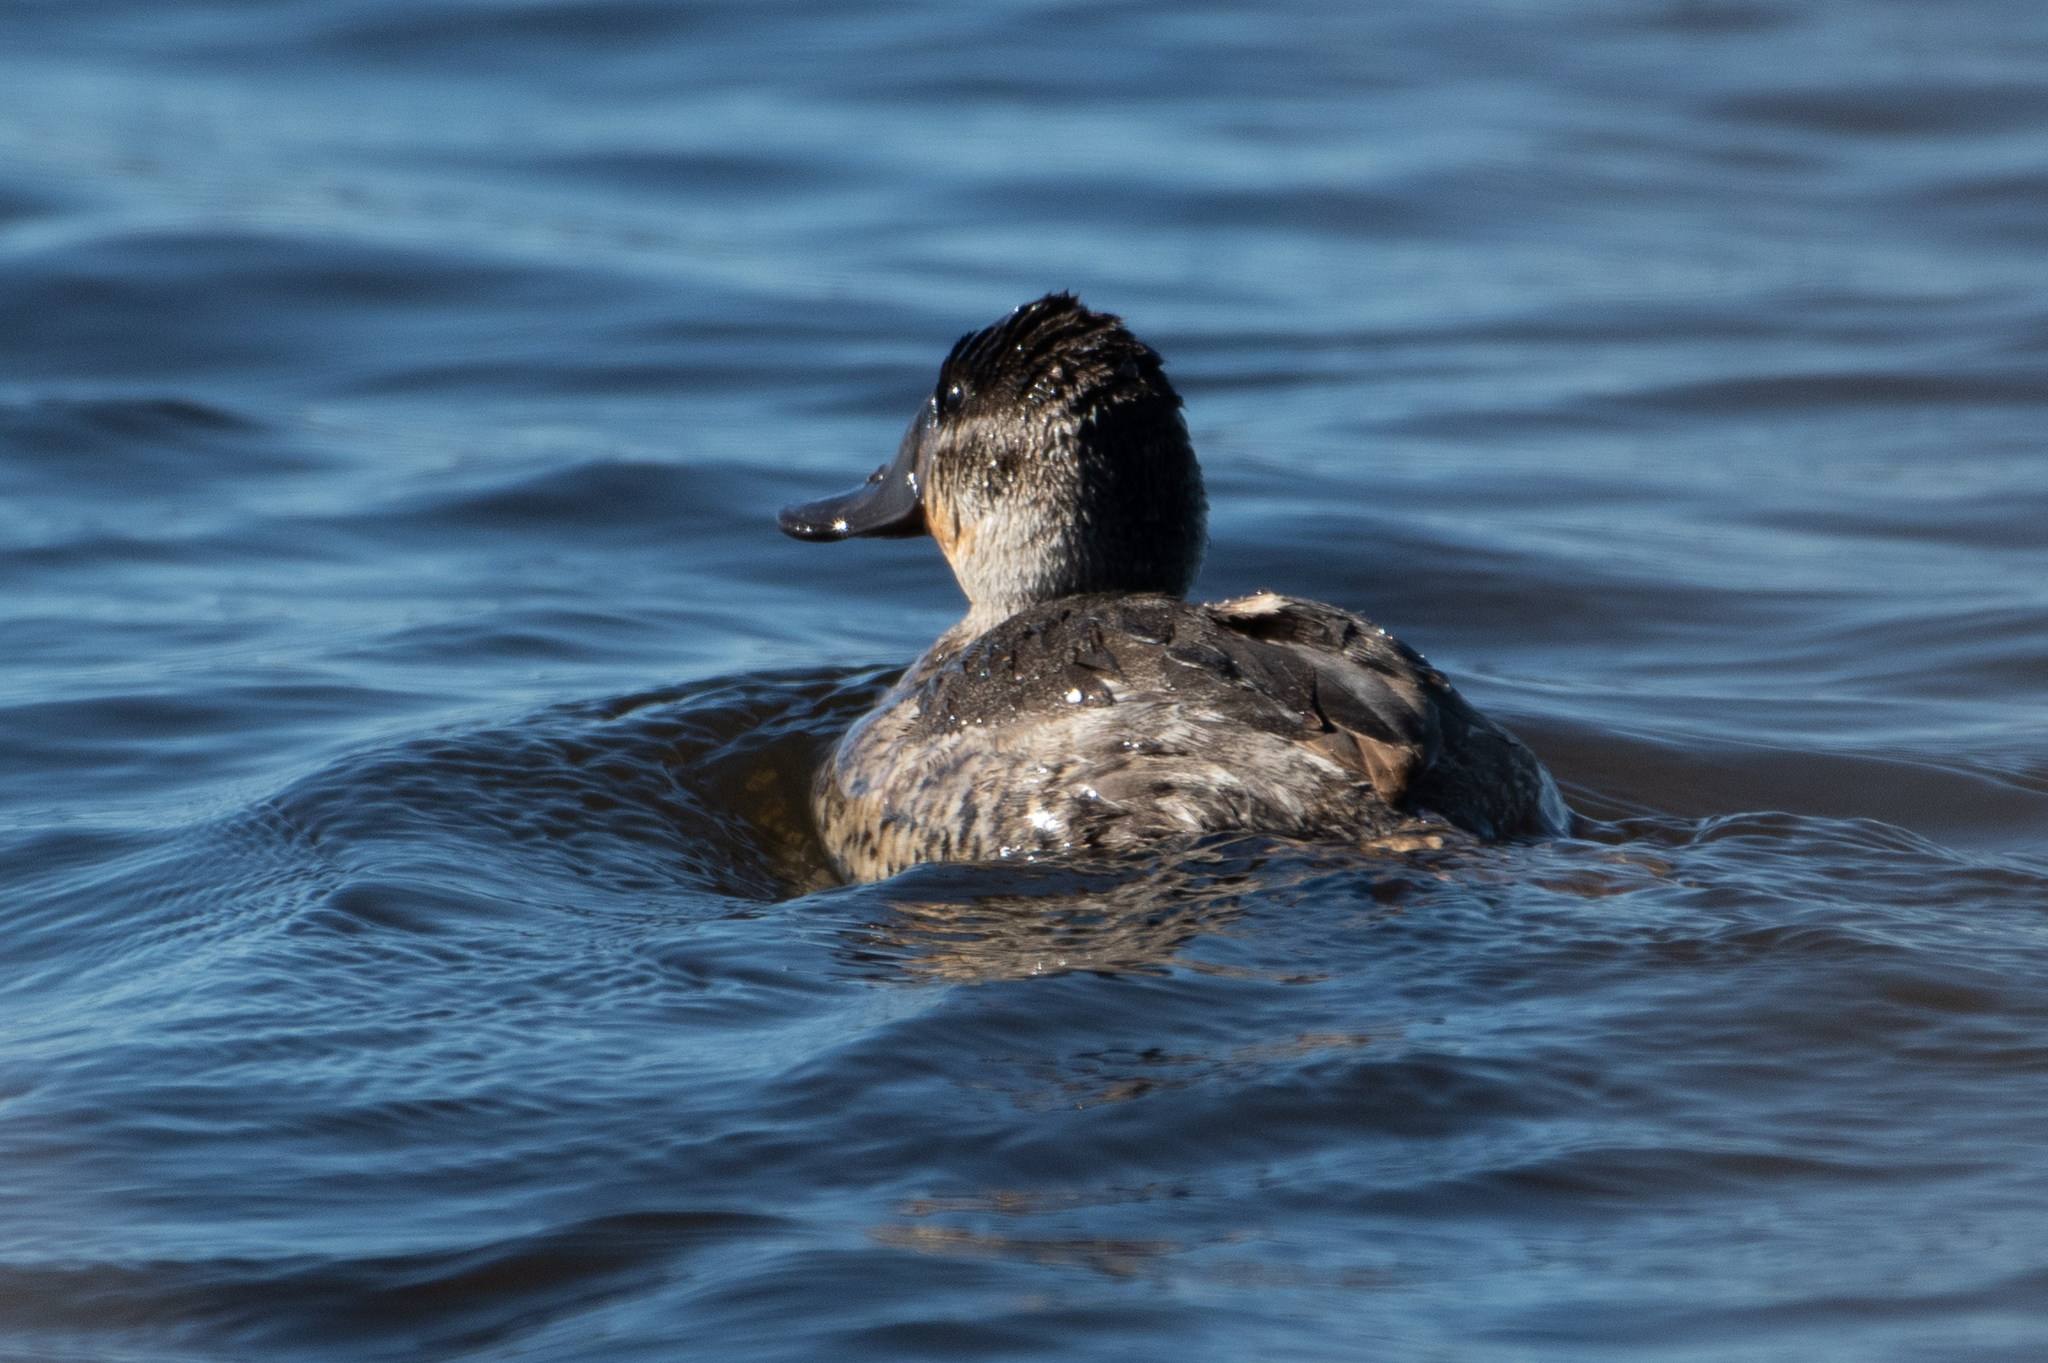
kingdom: Animalia
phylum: Chordata
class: Aves
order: Anseriformes
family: Anatidae
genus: Oxyura
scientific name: Oxyura jamaicensis
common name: Ruddy duck
